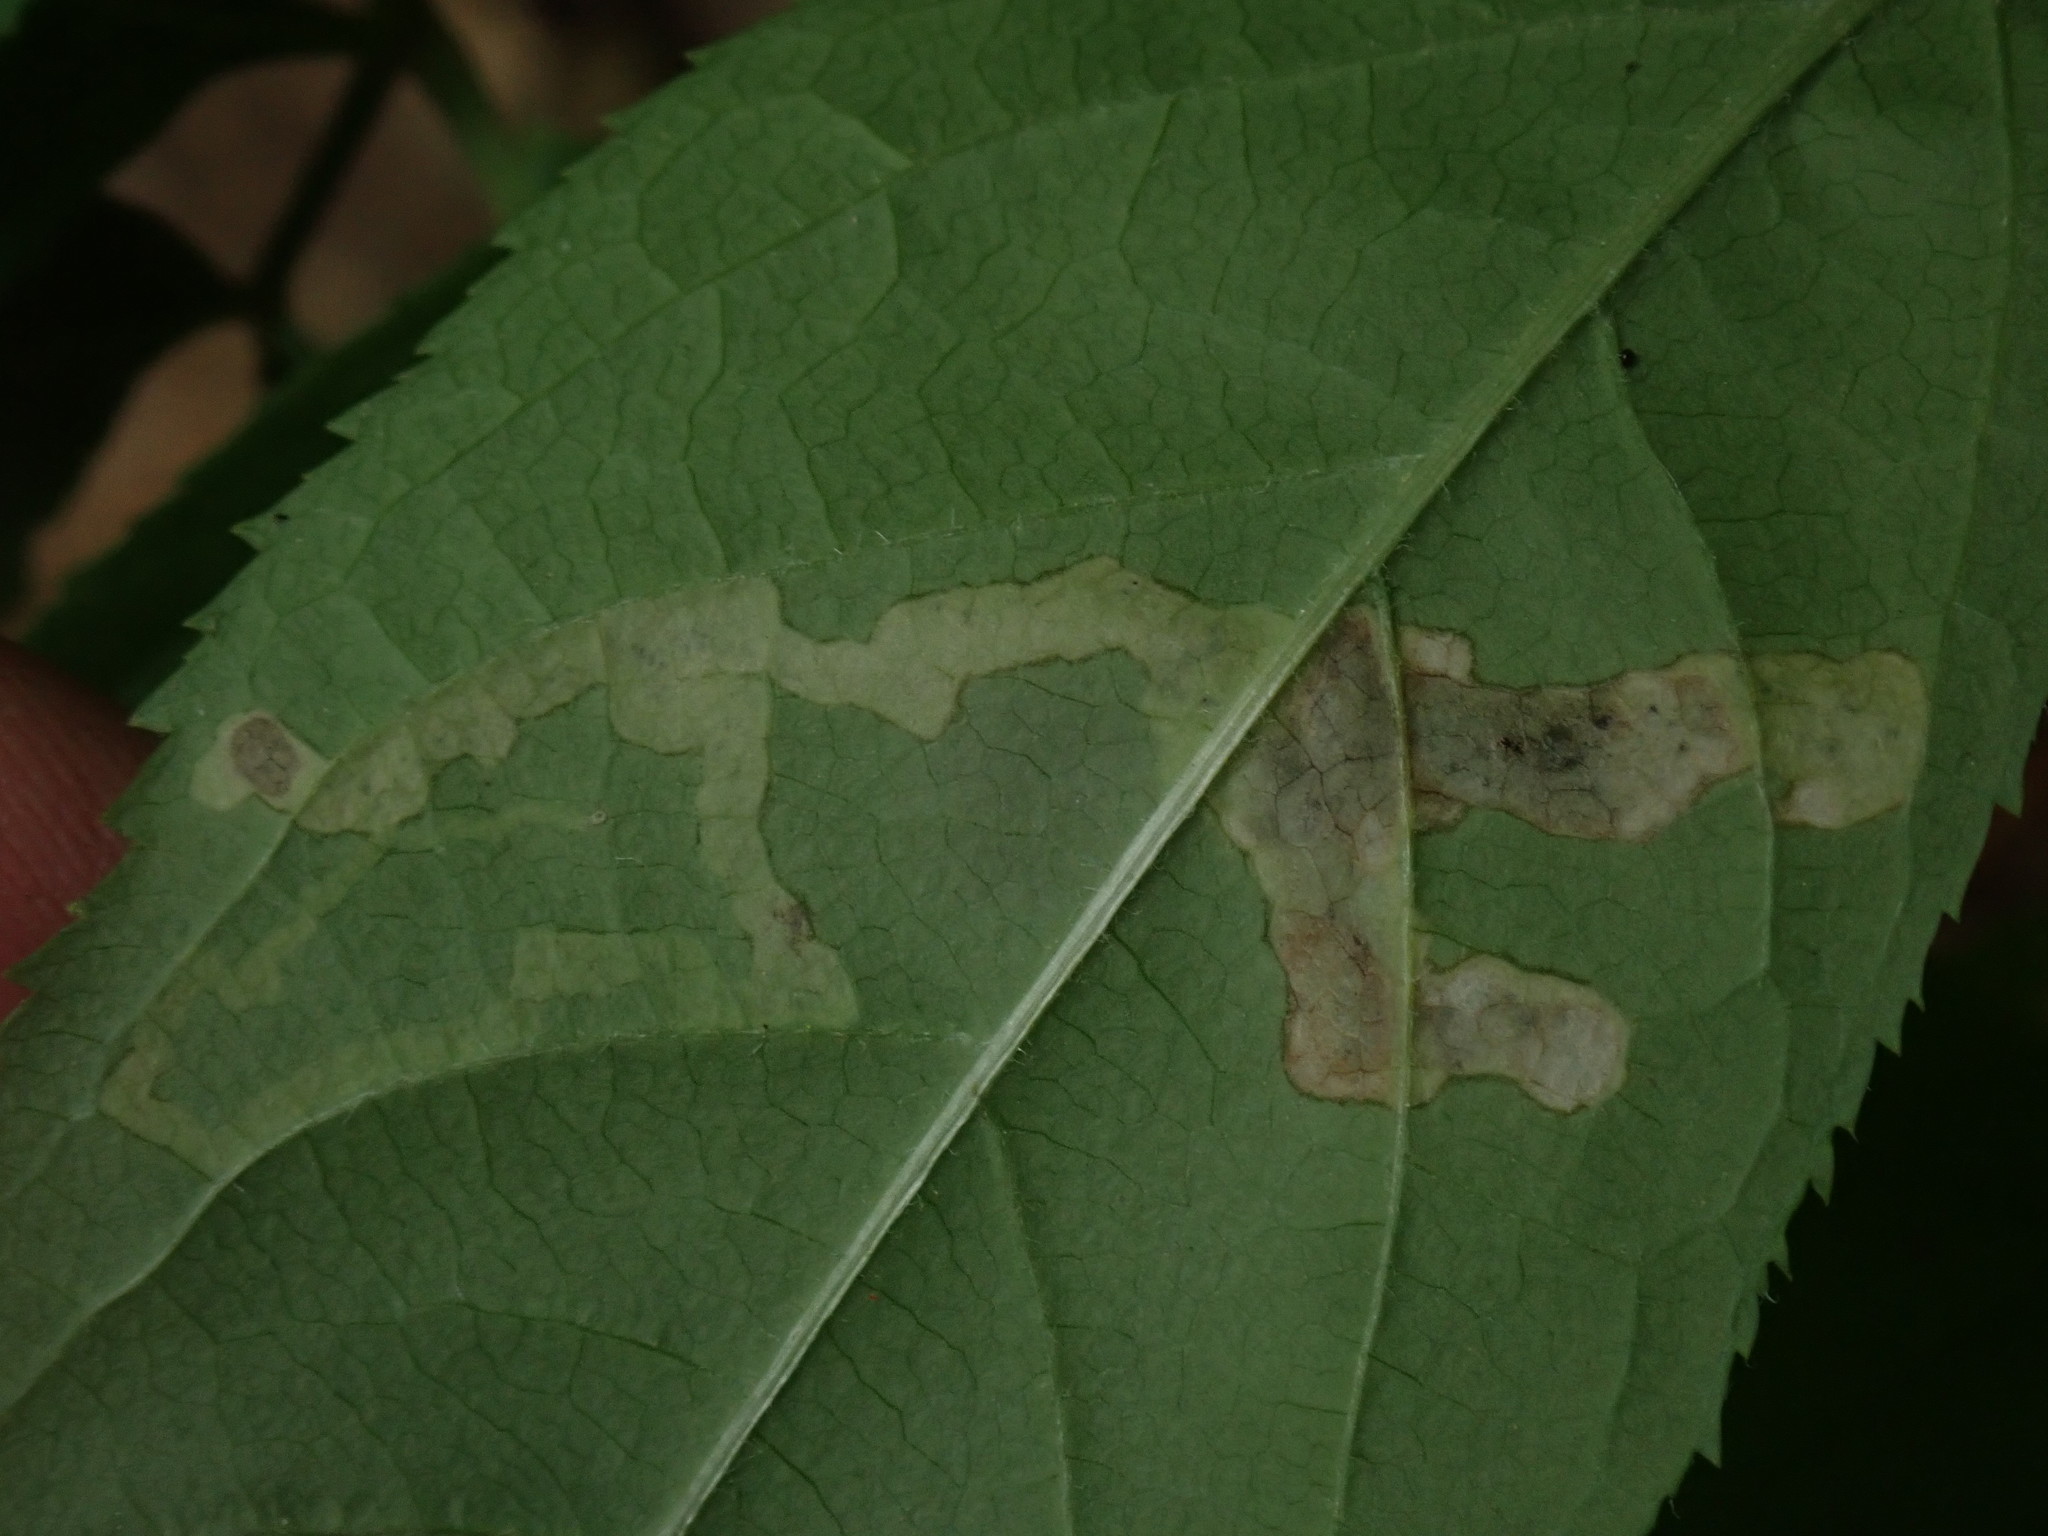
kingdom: Animalia
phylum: Arthropoda
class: Insecta
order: Diptera
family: Agromyzidae
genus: Phytomyza
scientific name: Phytomyza aralivora
